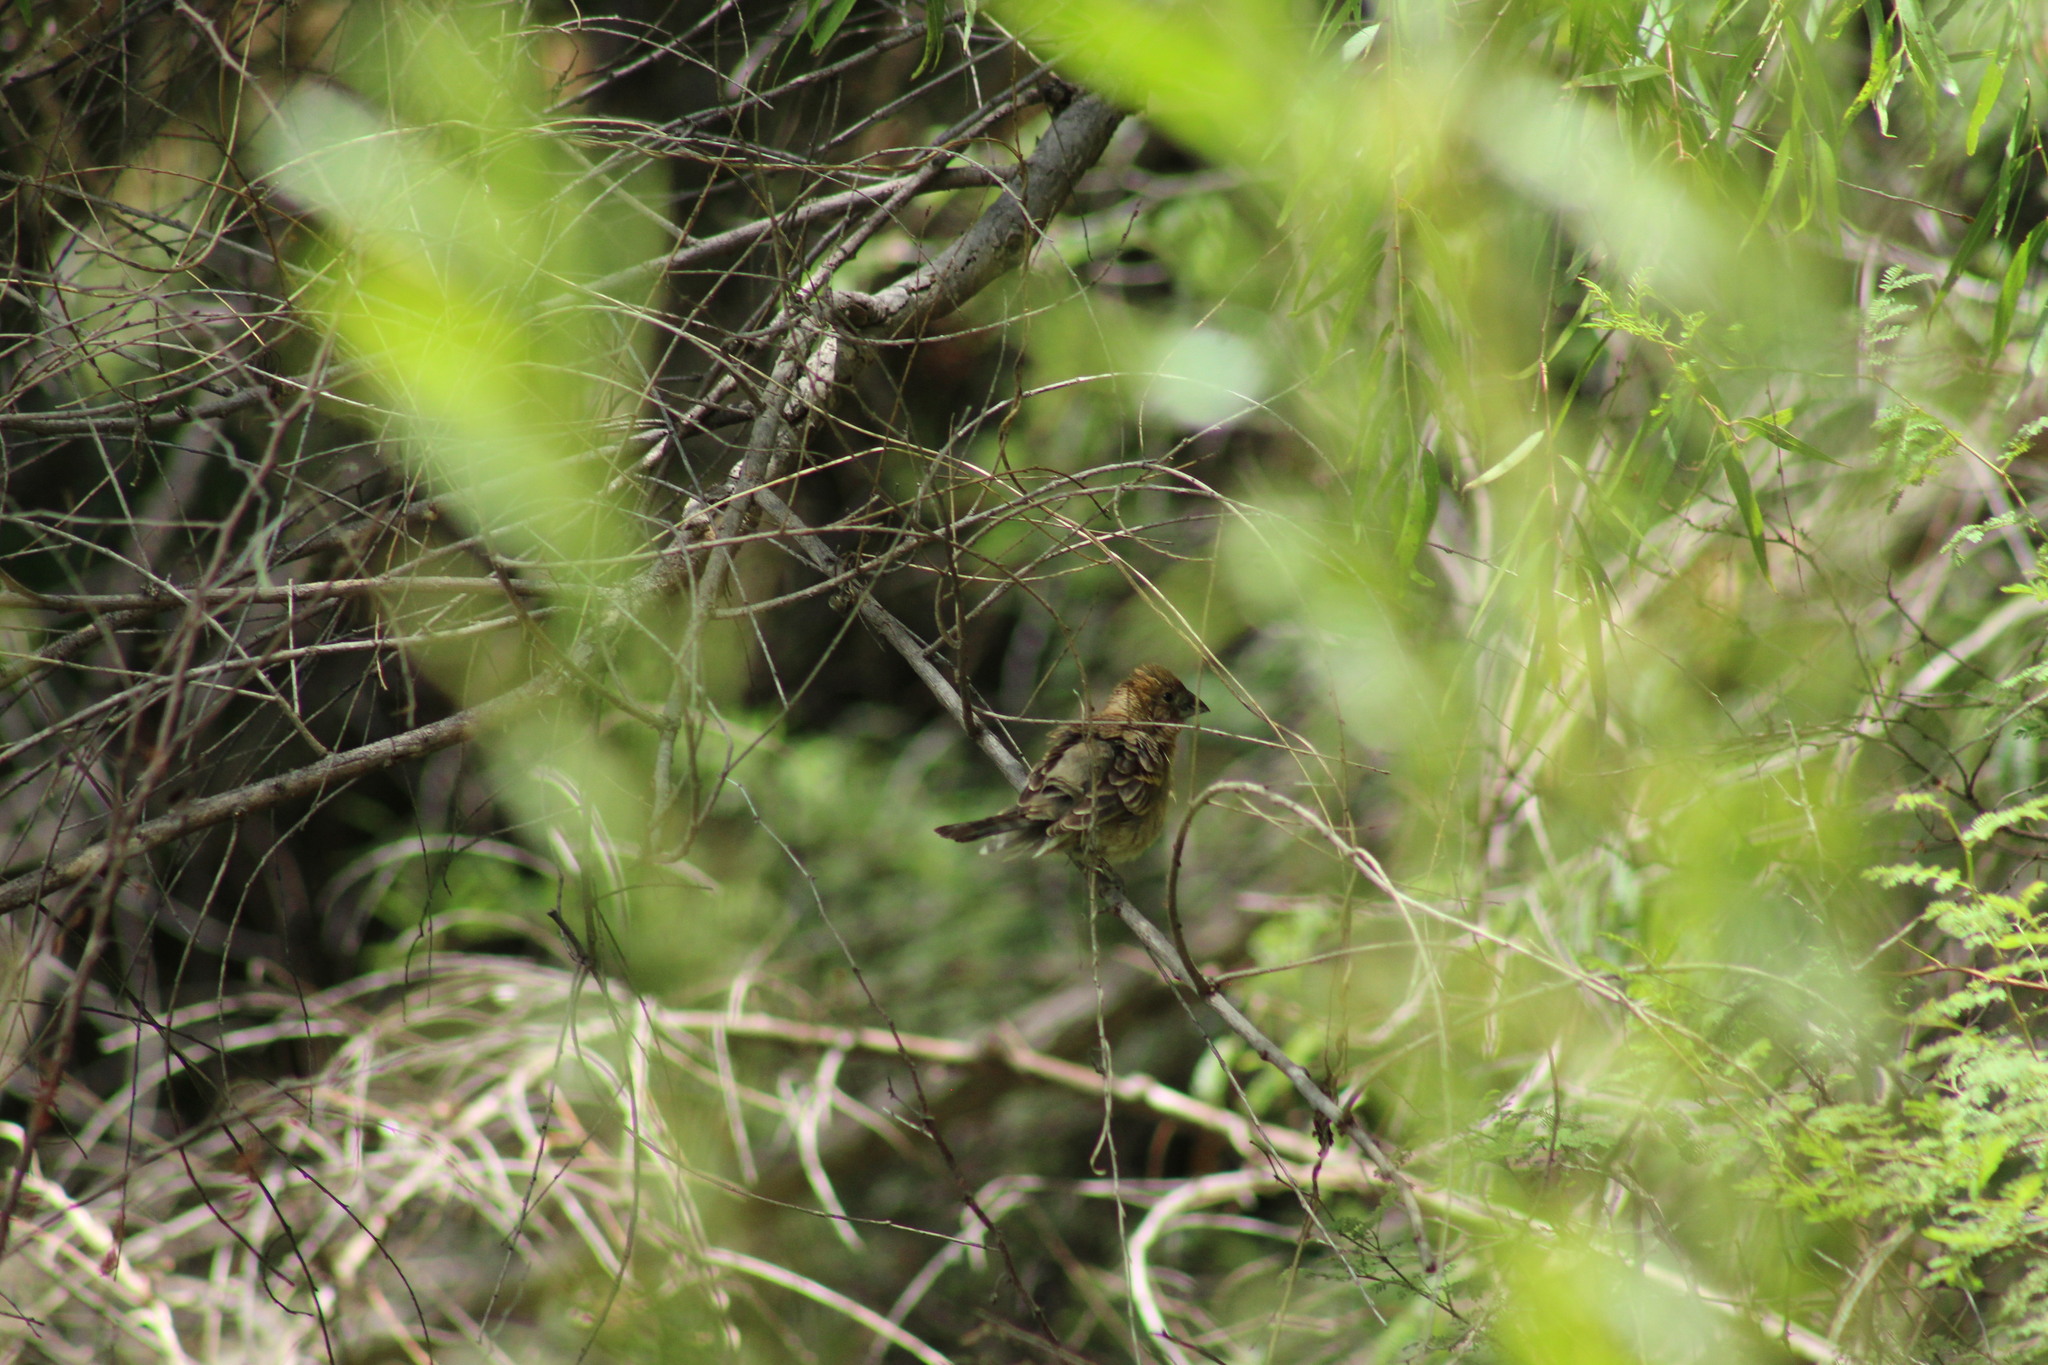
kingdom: Animalia
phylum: Chordata
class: Aves
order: Passeriformes
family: Cardinalidae
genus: Passerina
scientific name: Passerina caerulea
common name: Blue grosbeak
